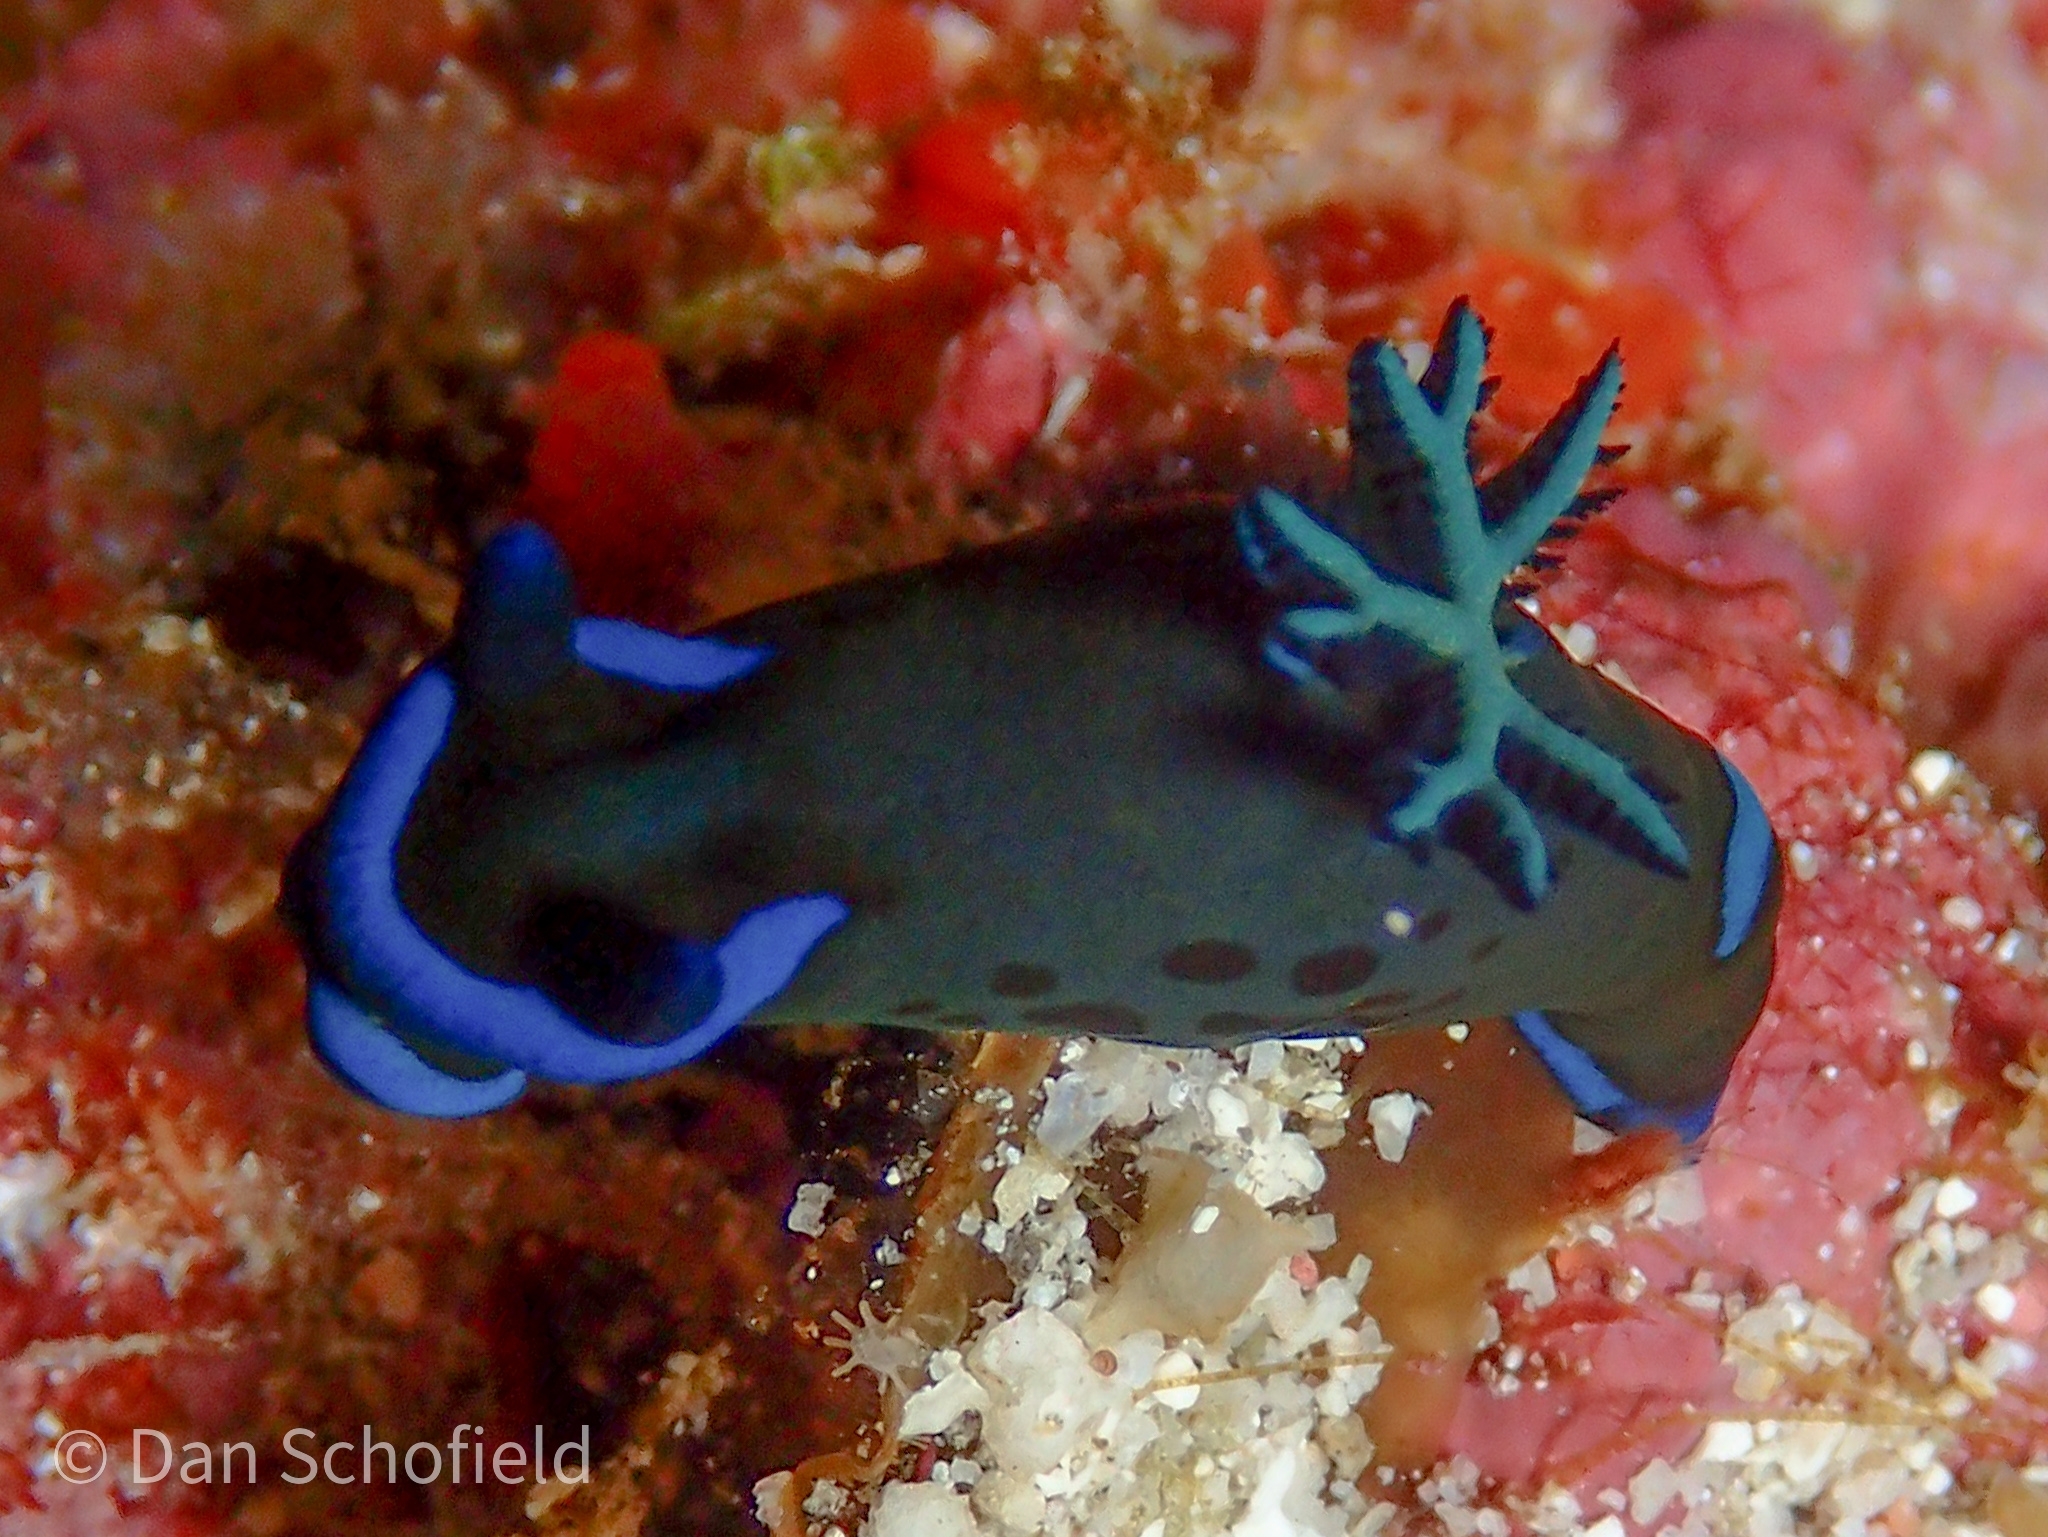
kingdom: Animalia
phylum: Mollusca
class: Gastropoda
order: Nudibranchia
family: Polyceridae
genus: Tambja
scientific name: Tambja morosa
